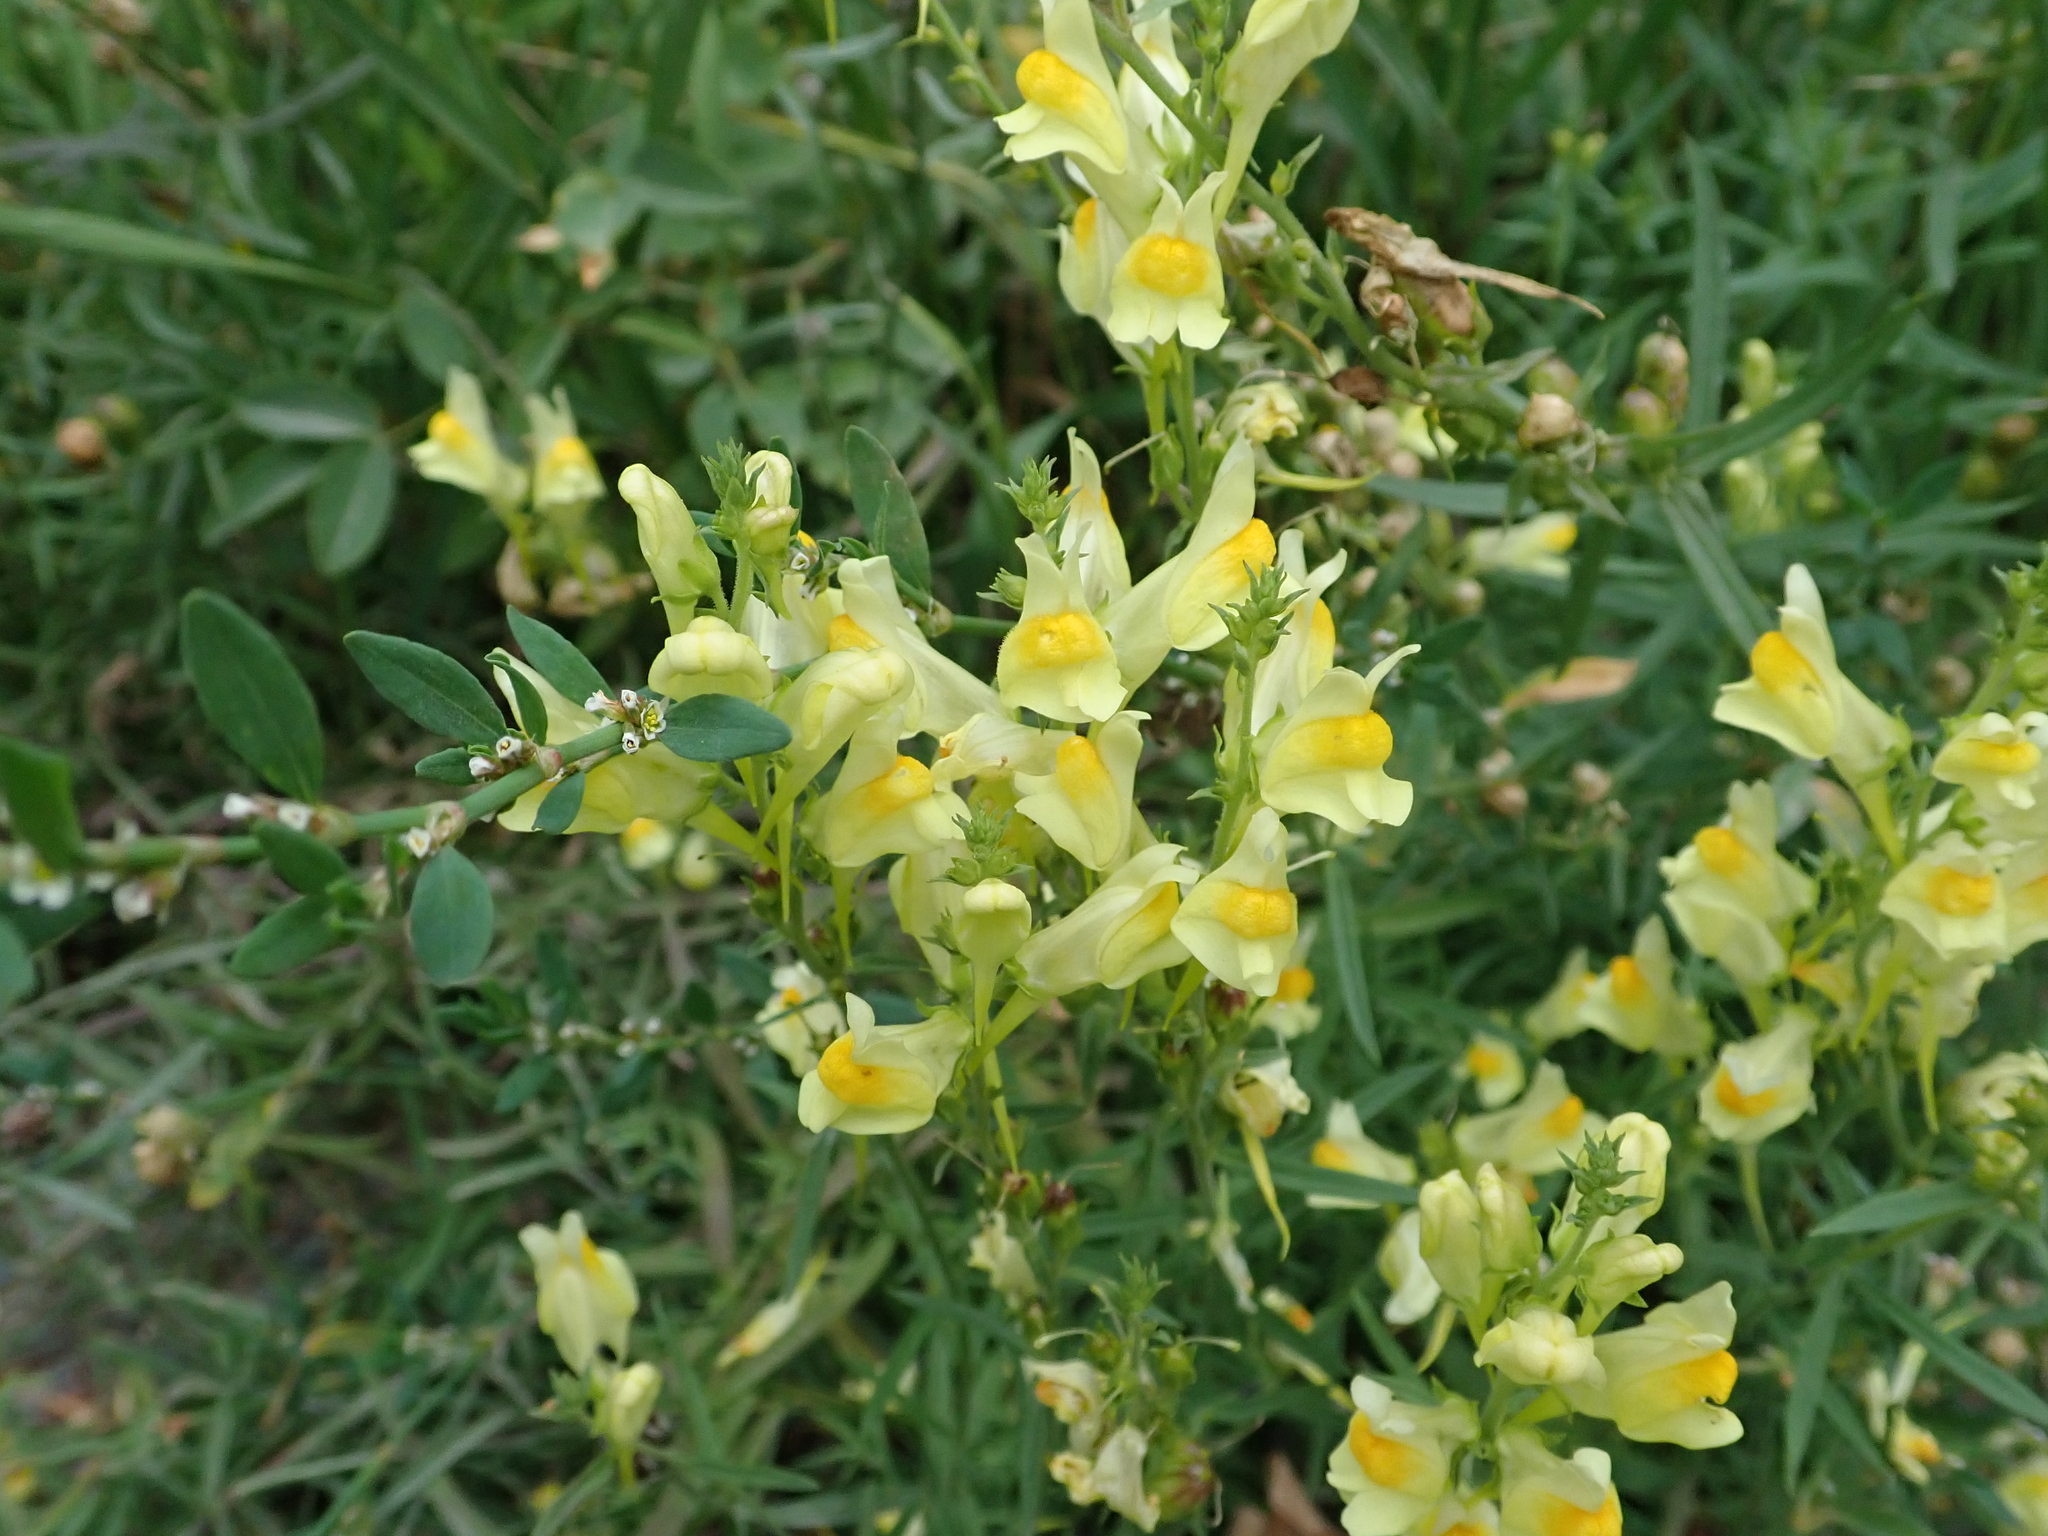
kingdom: Plantae
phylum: Tracheophyta
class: Magnoliopsida
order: Lamiales
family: Plantaginaceae
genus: Linaria
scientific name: Linaria vulgaris
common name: Butter and eggs
